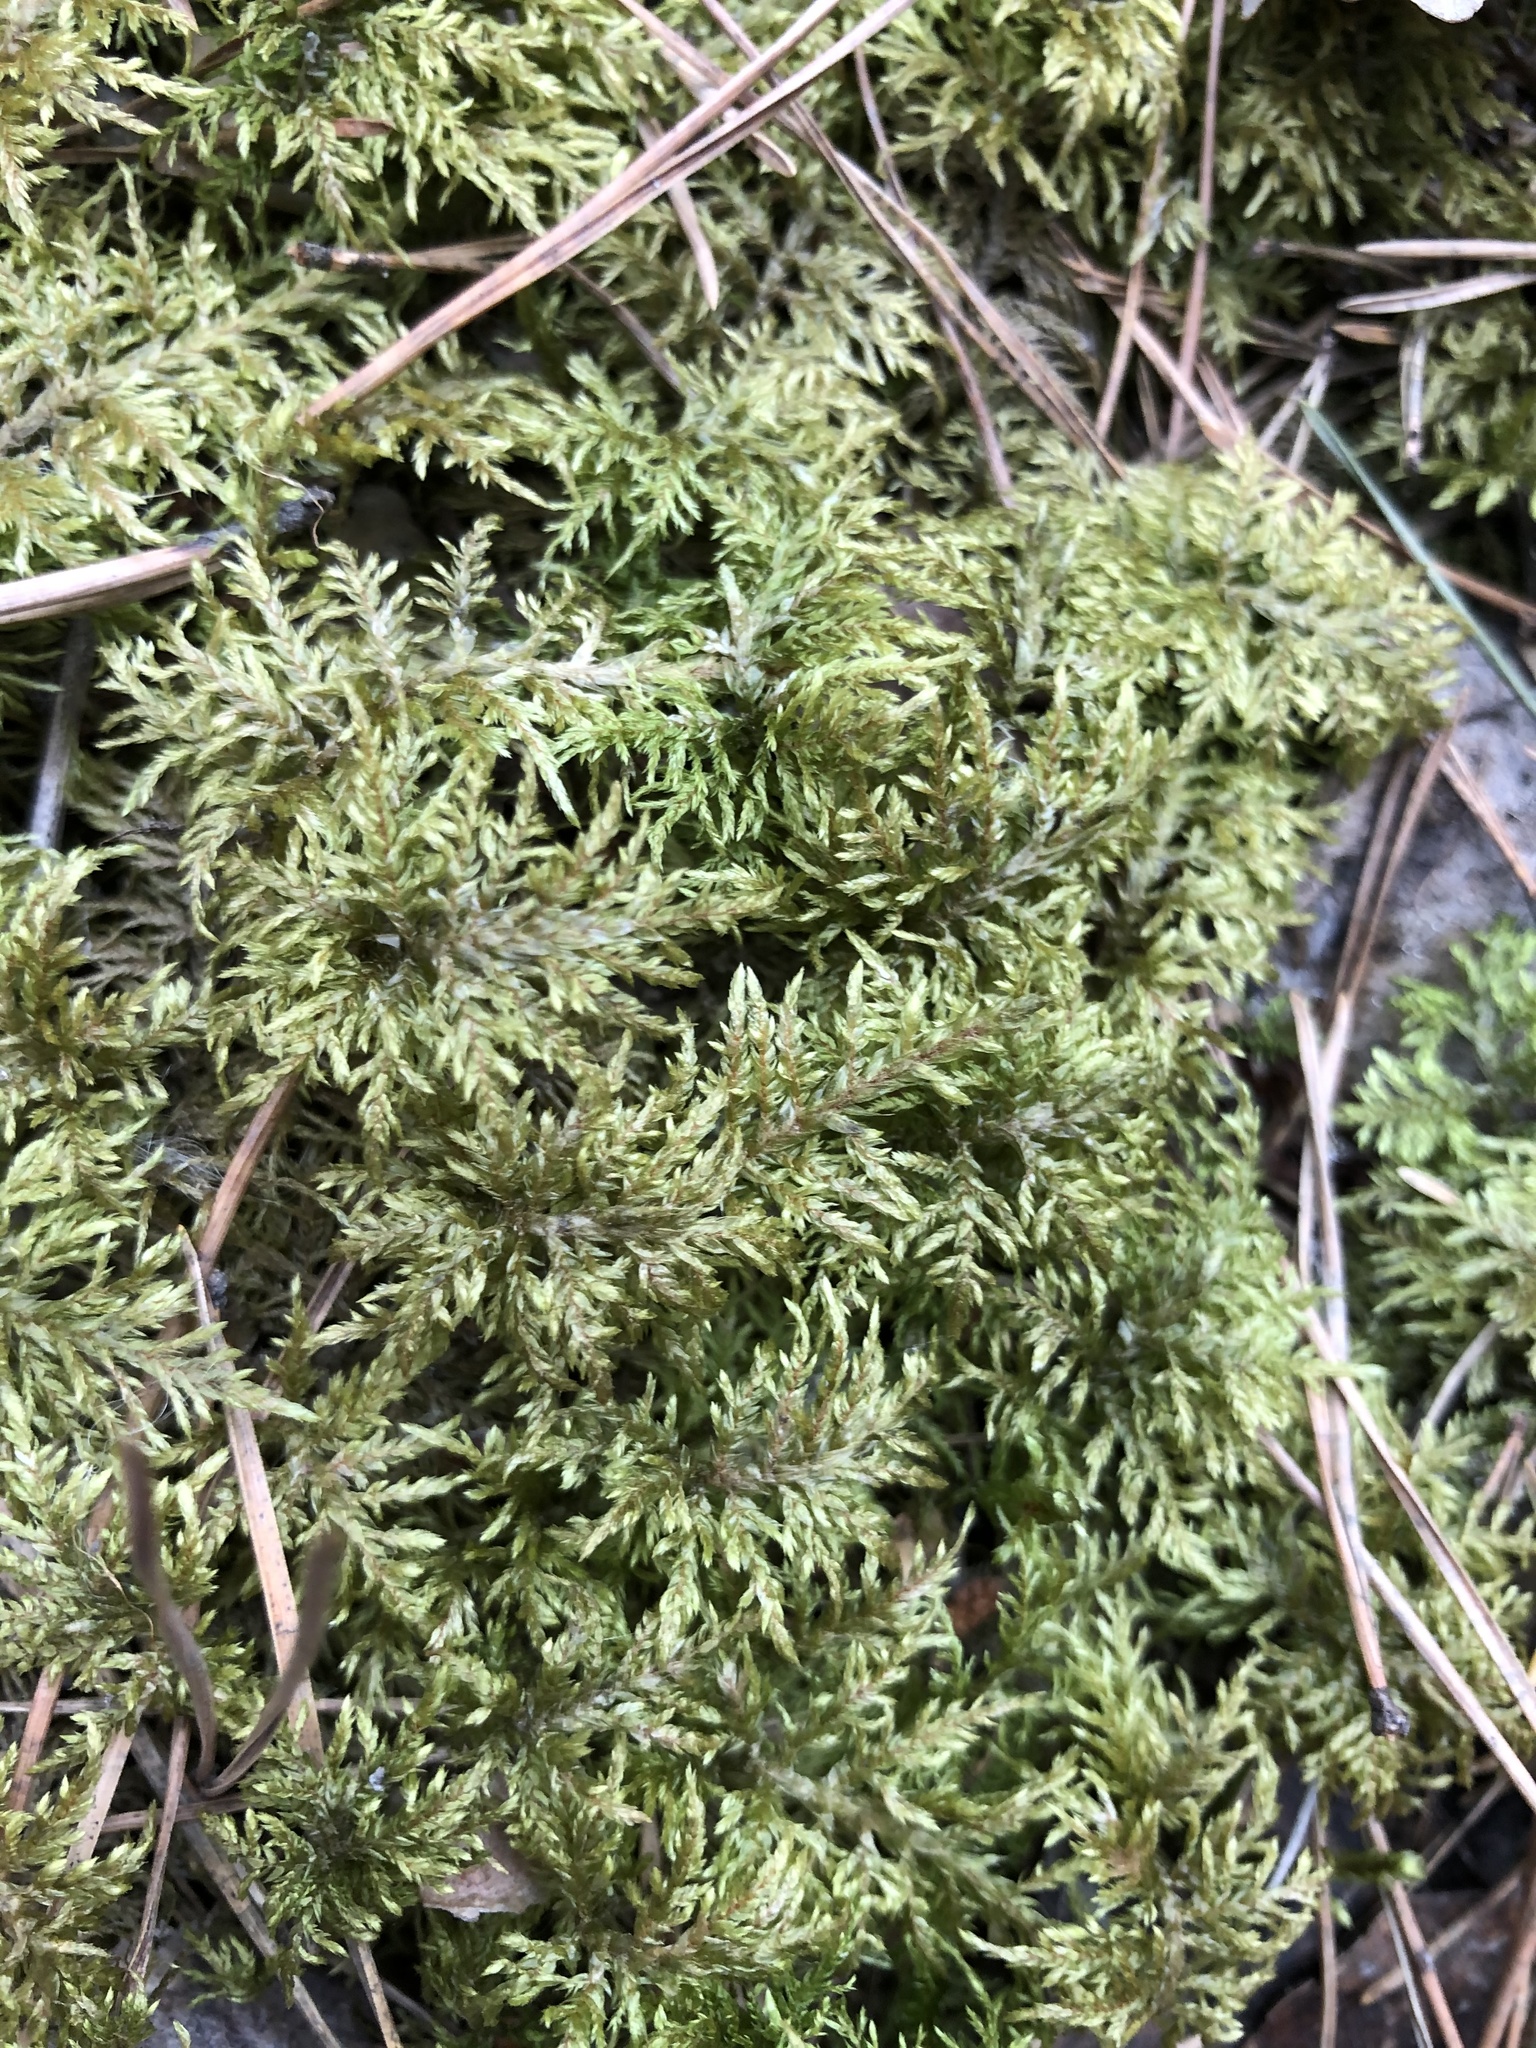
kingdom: Plantae
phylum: Bryophyta
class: Bryopsida
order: Hypnales
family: Hylocomiaceae
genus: Hylocomium
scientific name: Hylocomium splendens
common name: Stairstep moss
